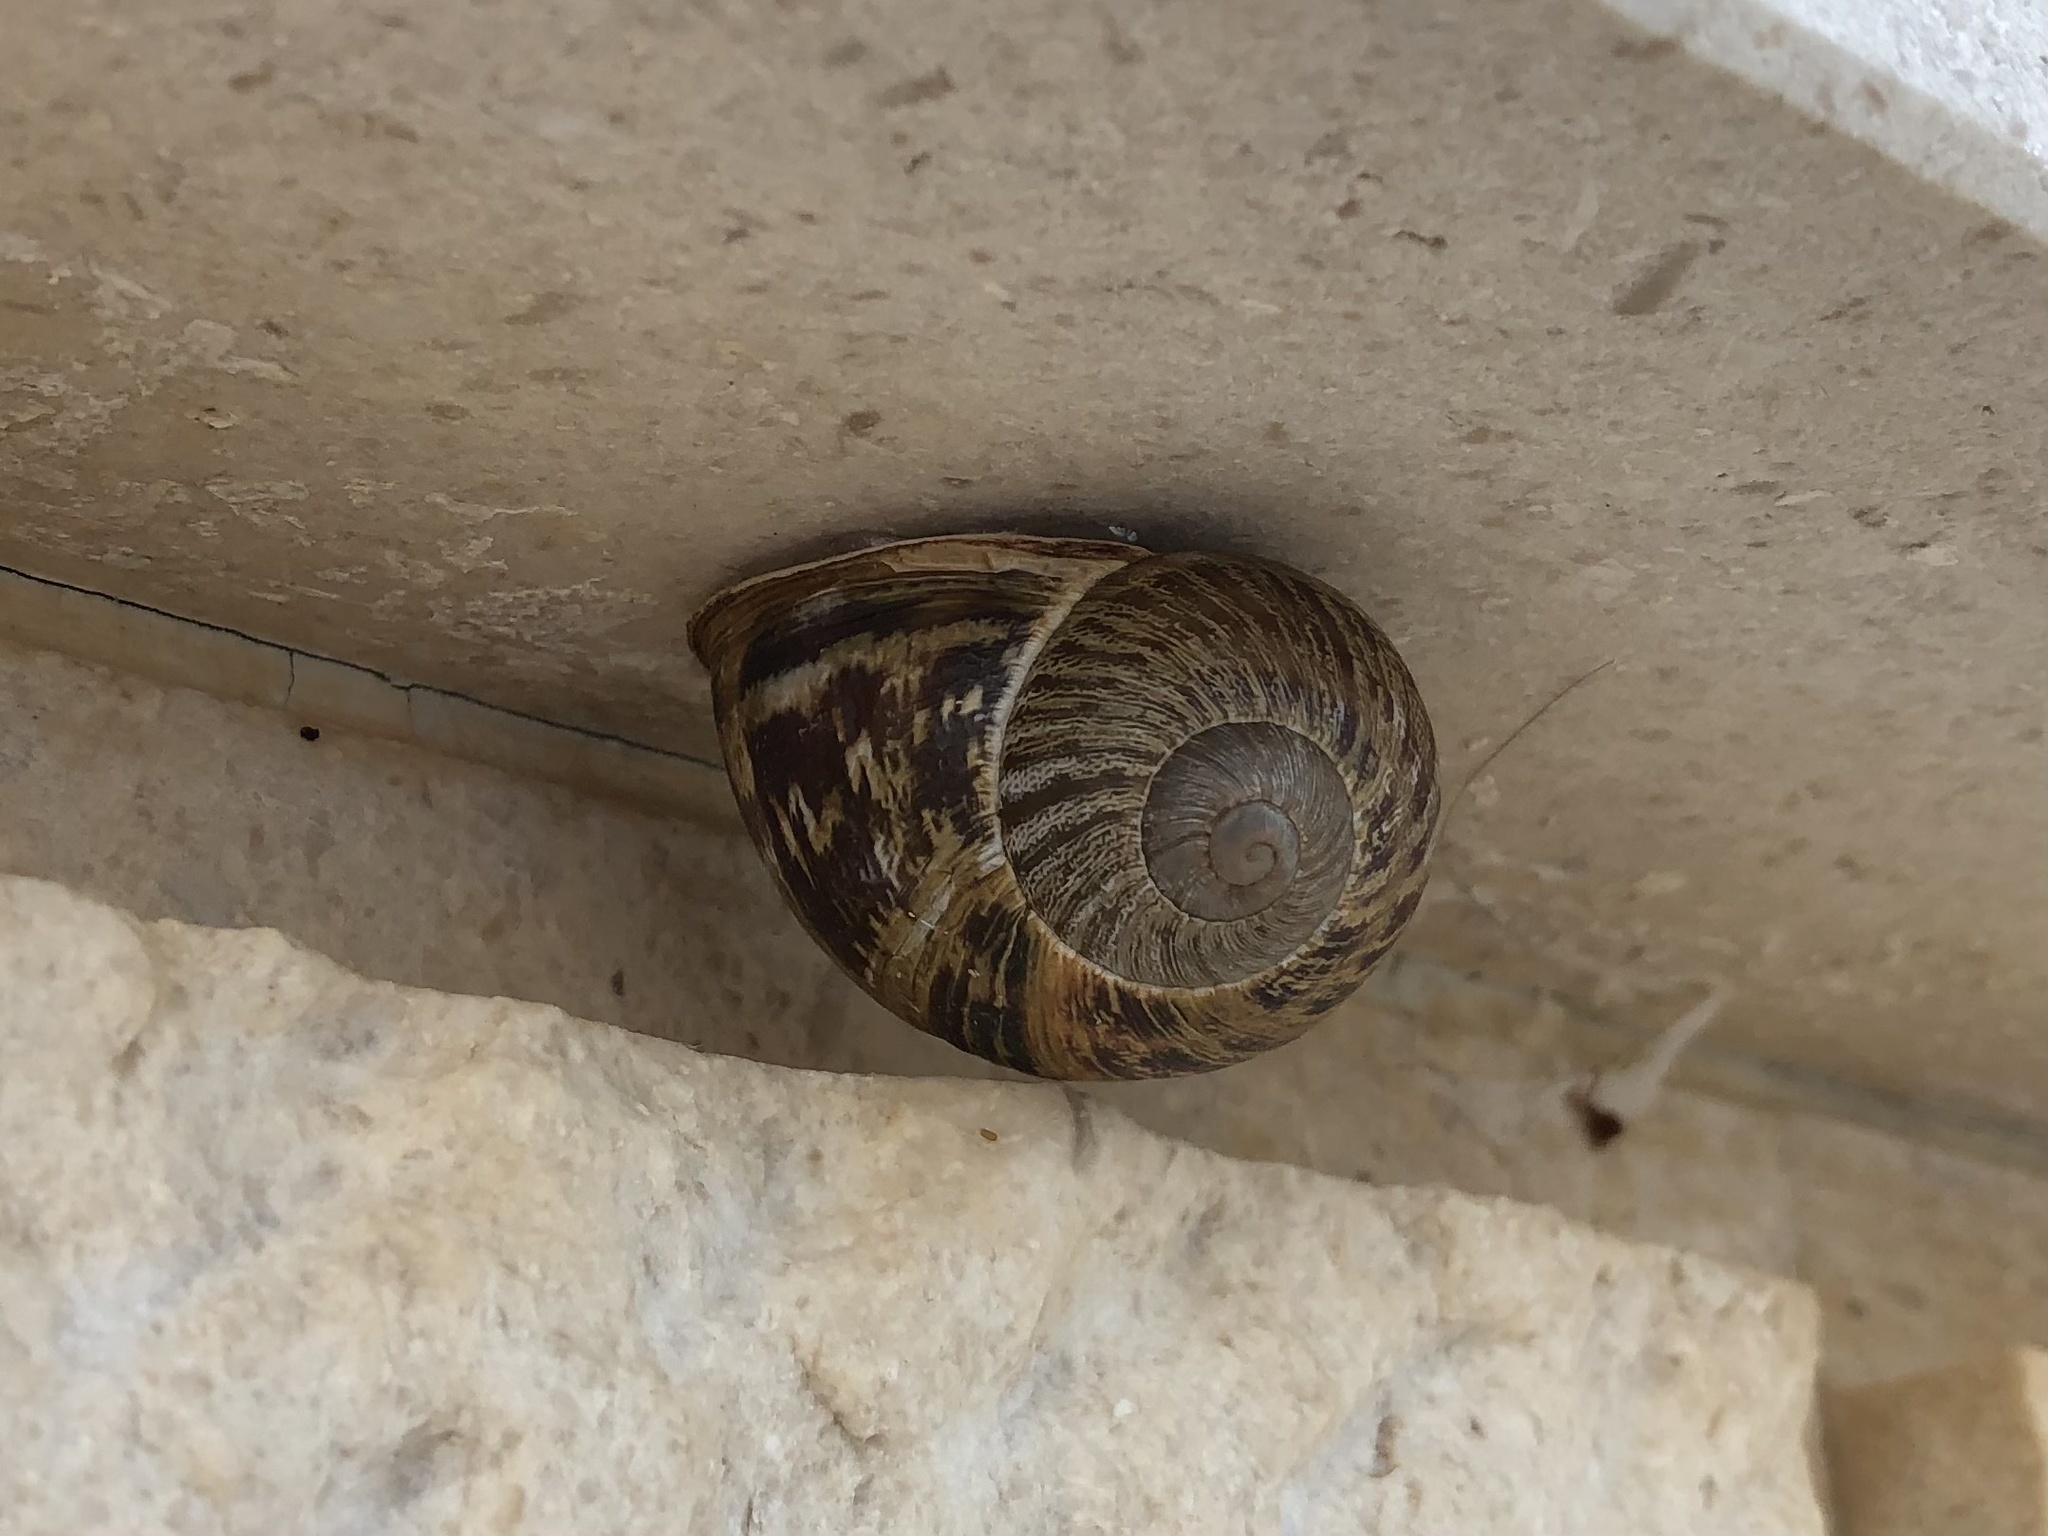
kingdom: Animalia
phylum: Mollusca
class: Gastropoda
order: Stylommatophora
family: Helicidae
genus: Cornu
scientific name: Cornu aspersum
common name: Brown garden snail
